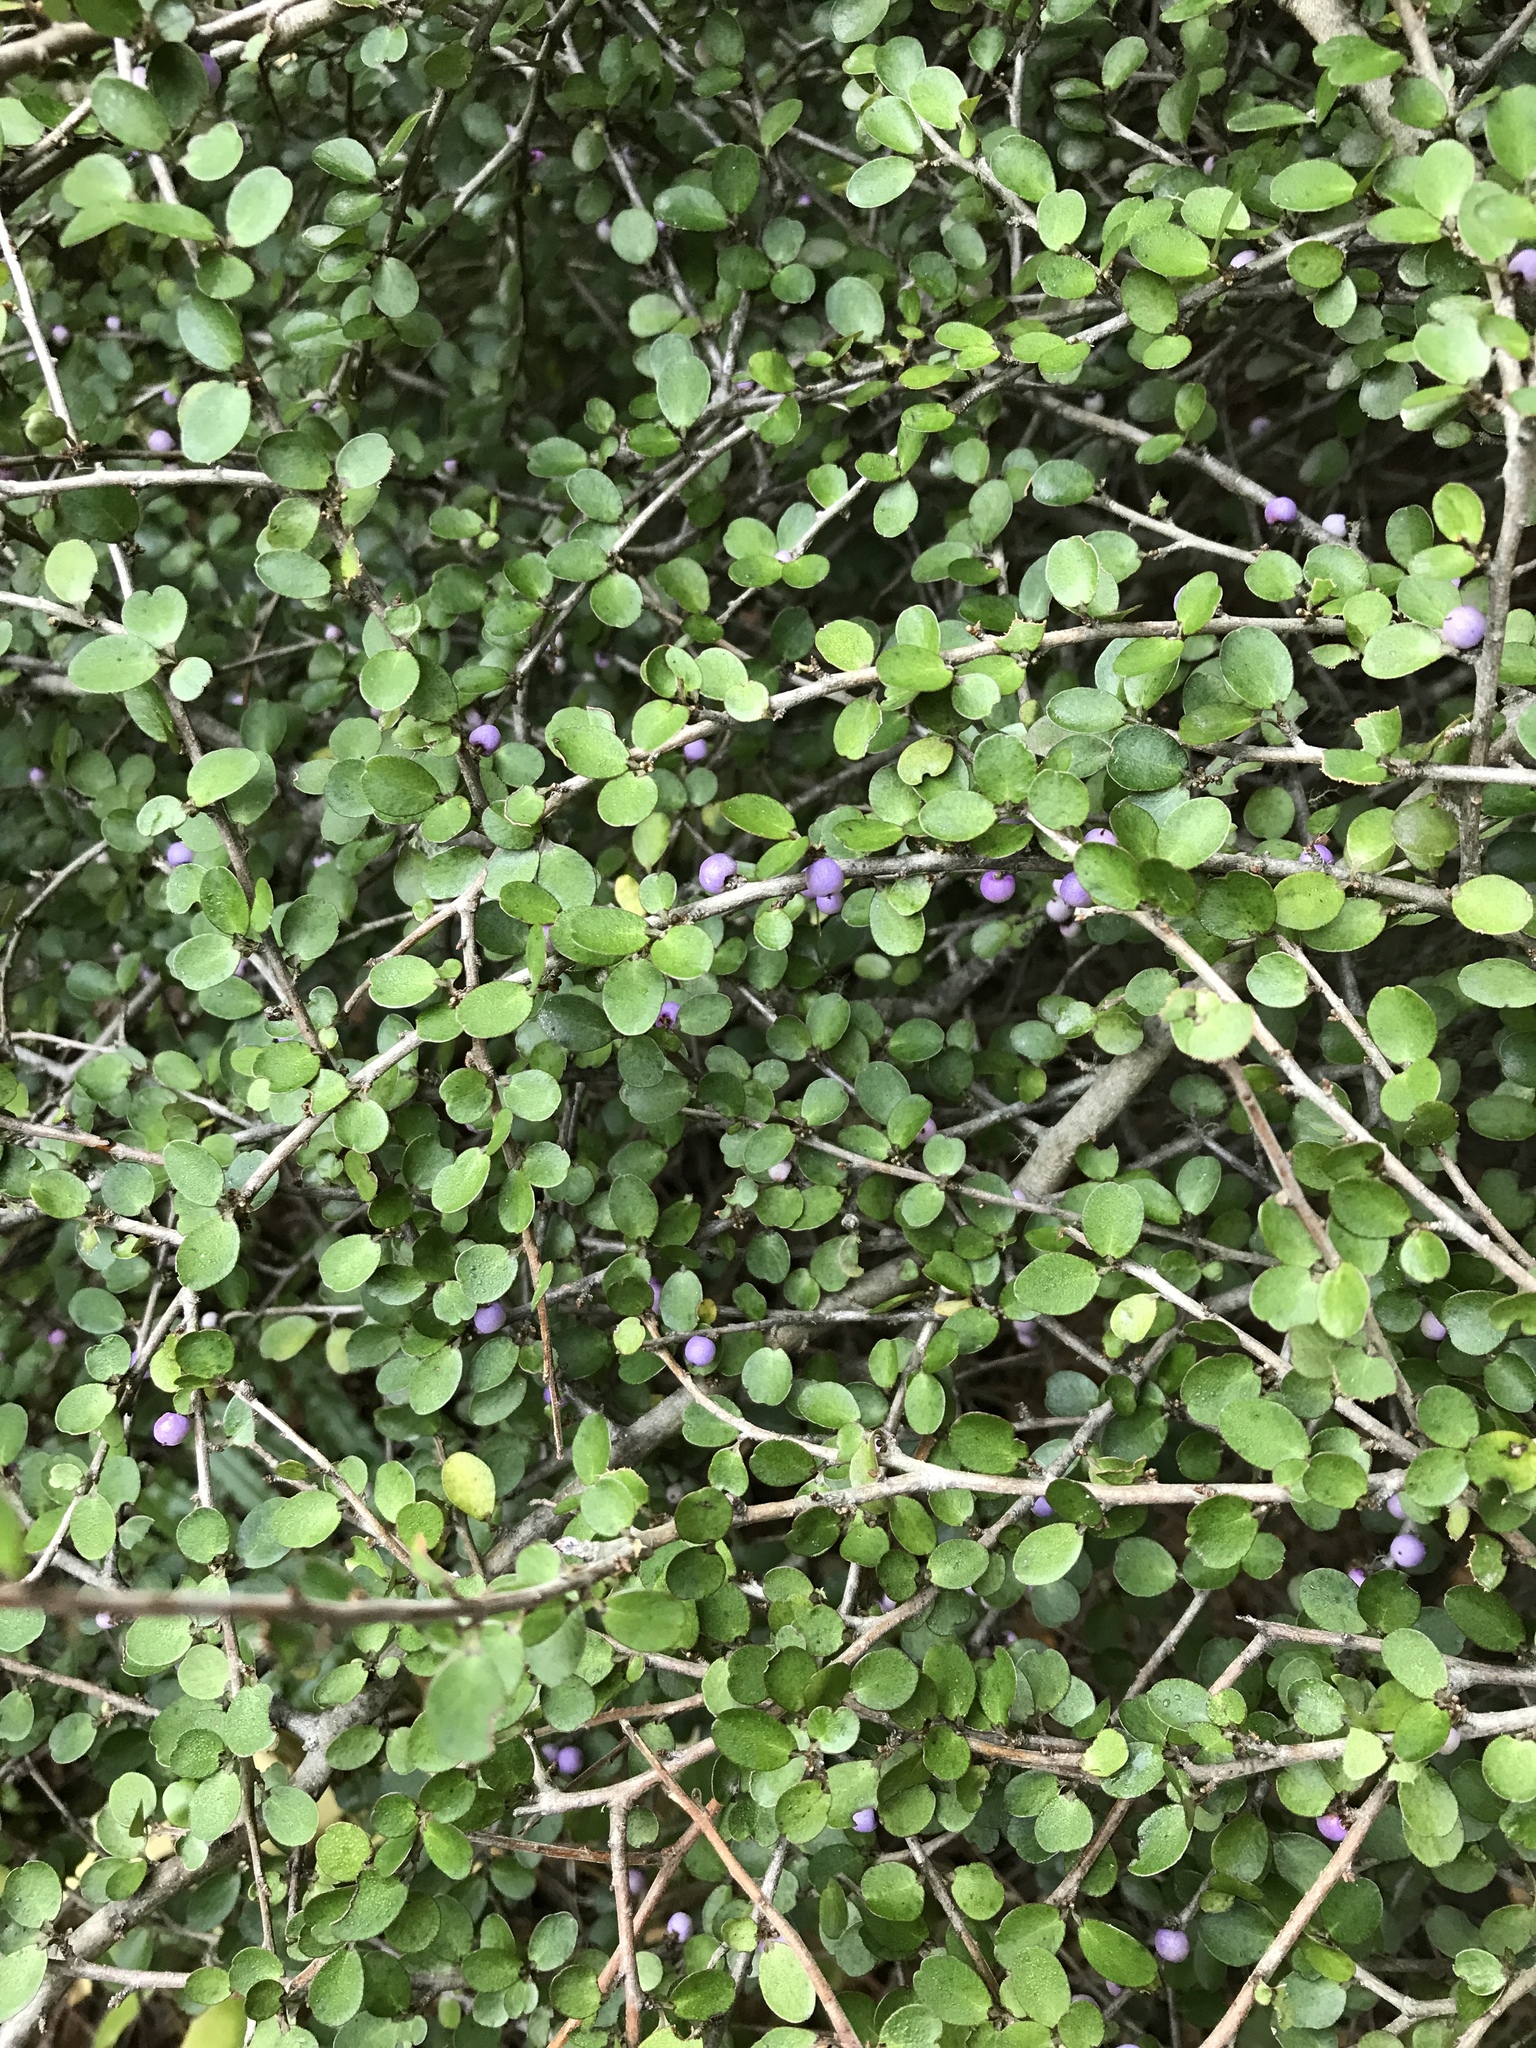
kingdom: Plantae
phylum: Tracheophyta
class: Magnoliopsida
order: Ericales
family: Primulaceae
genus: Myrsine
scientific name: Myrsine divaricata
